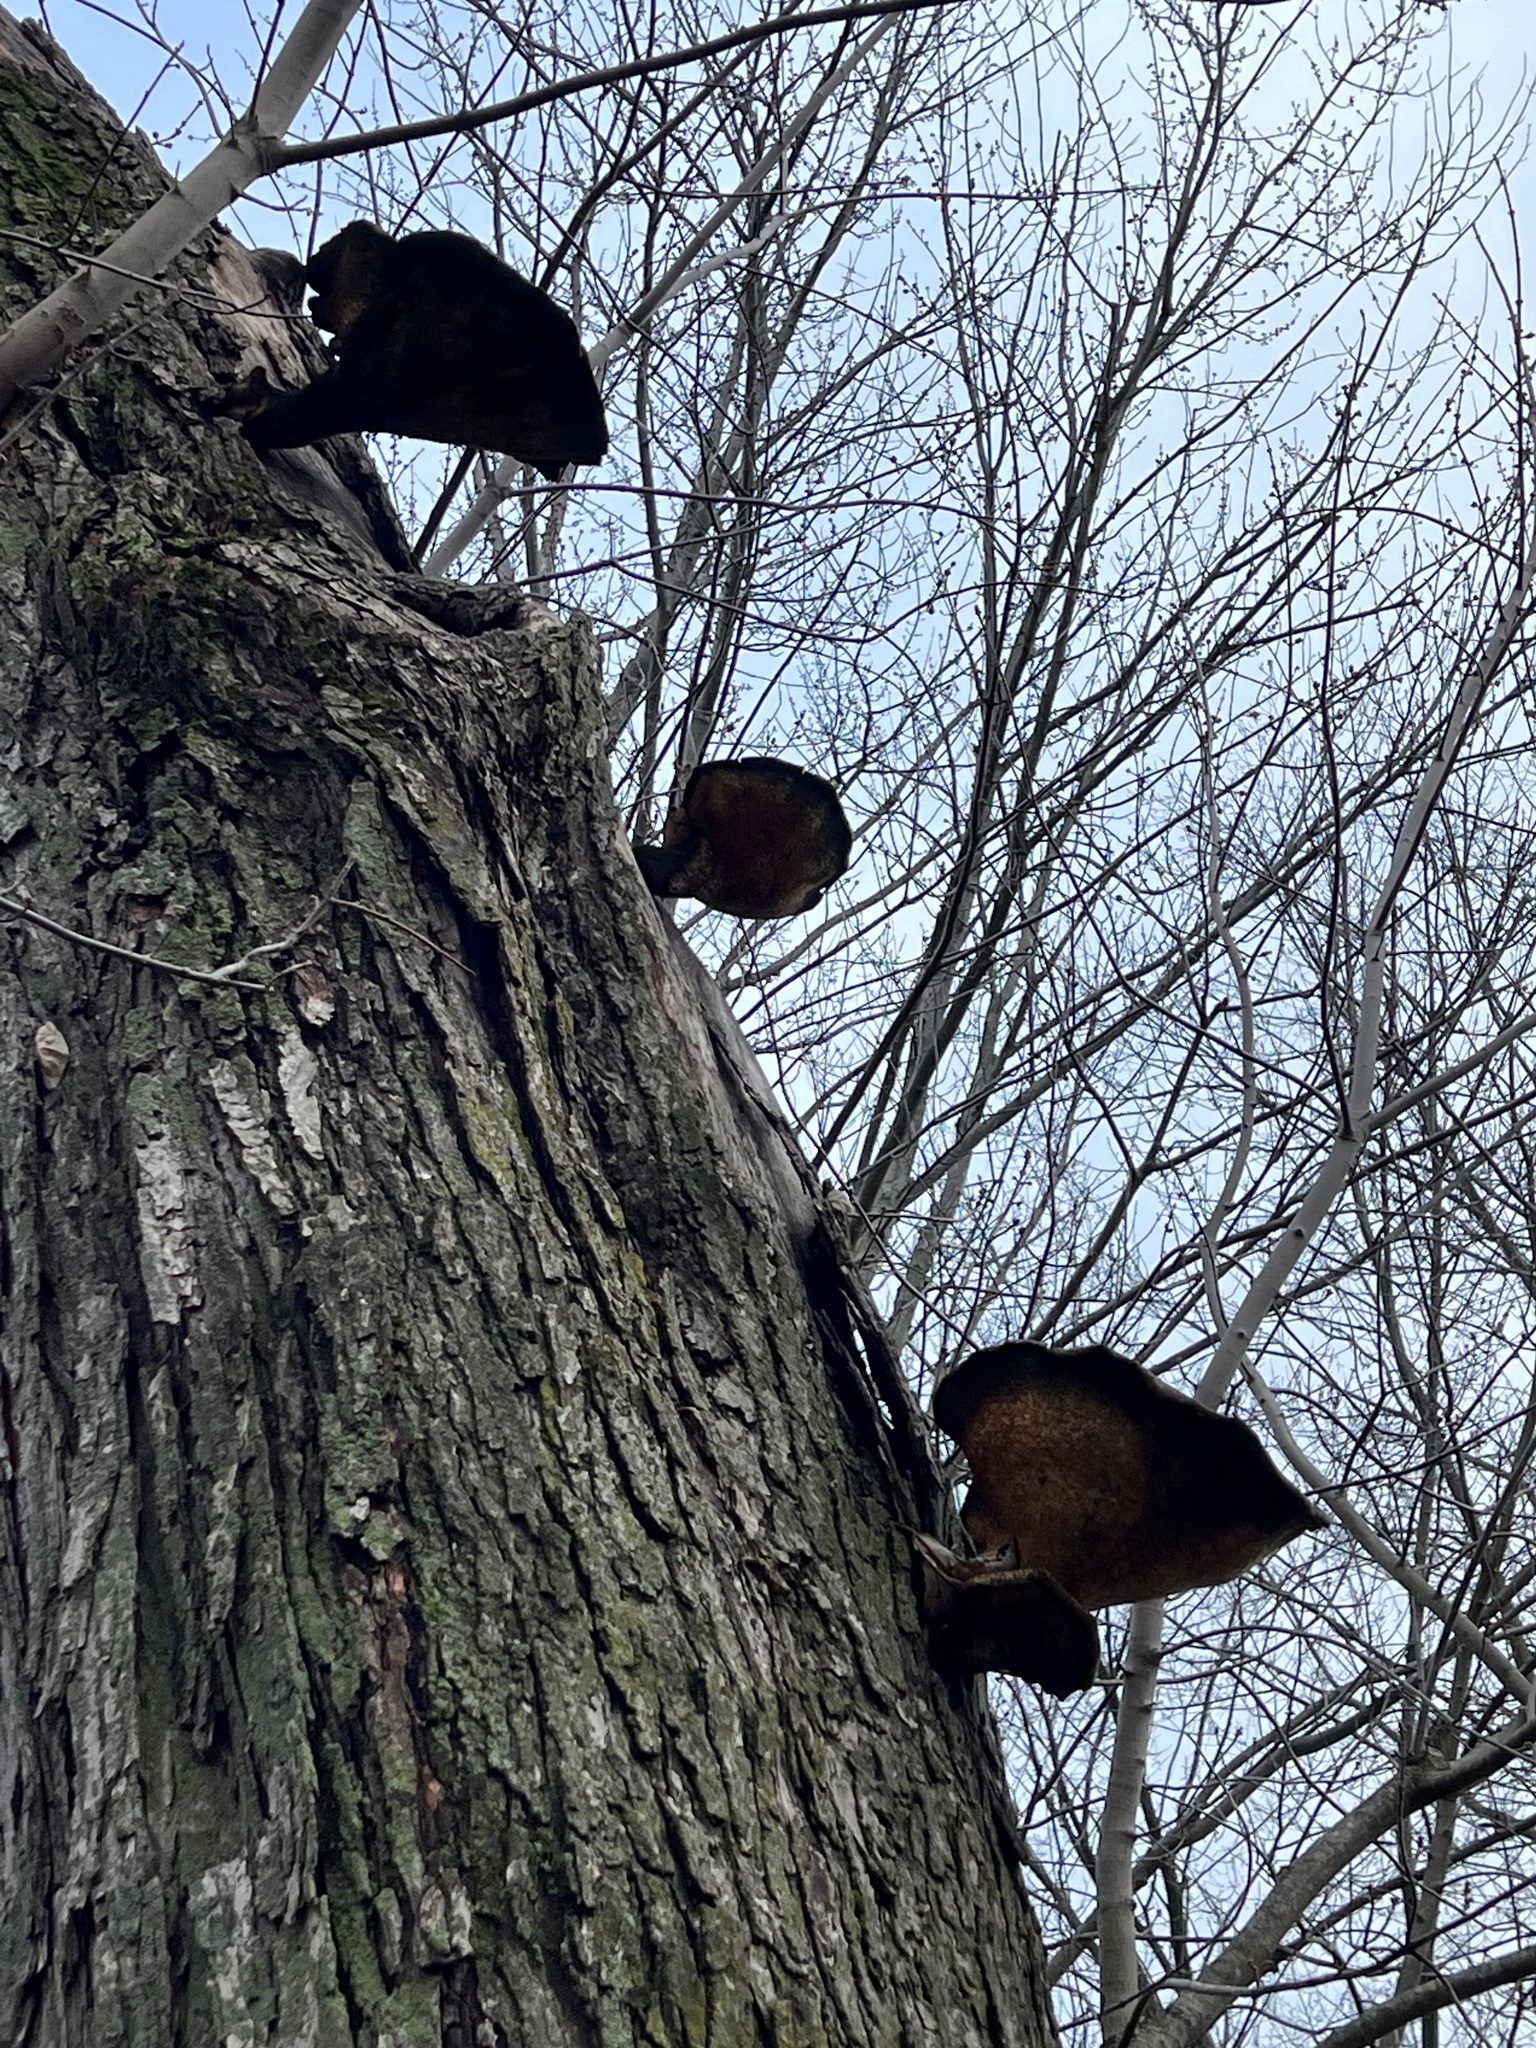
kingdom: Fungi
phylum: Basidiomycota
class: Agaricomycetes
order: Polyporales
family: Polyporaceae
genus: Cerioporus
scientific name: Cerioporus squamosus
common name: Dryad's saddle
